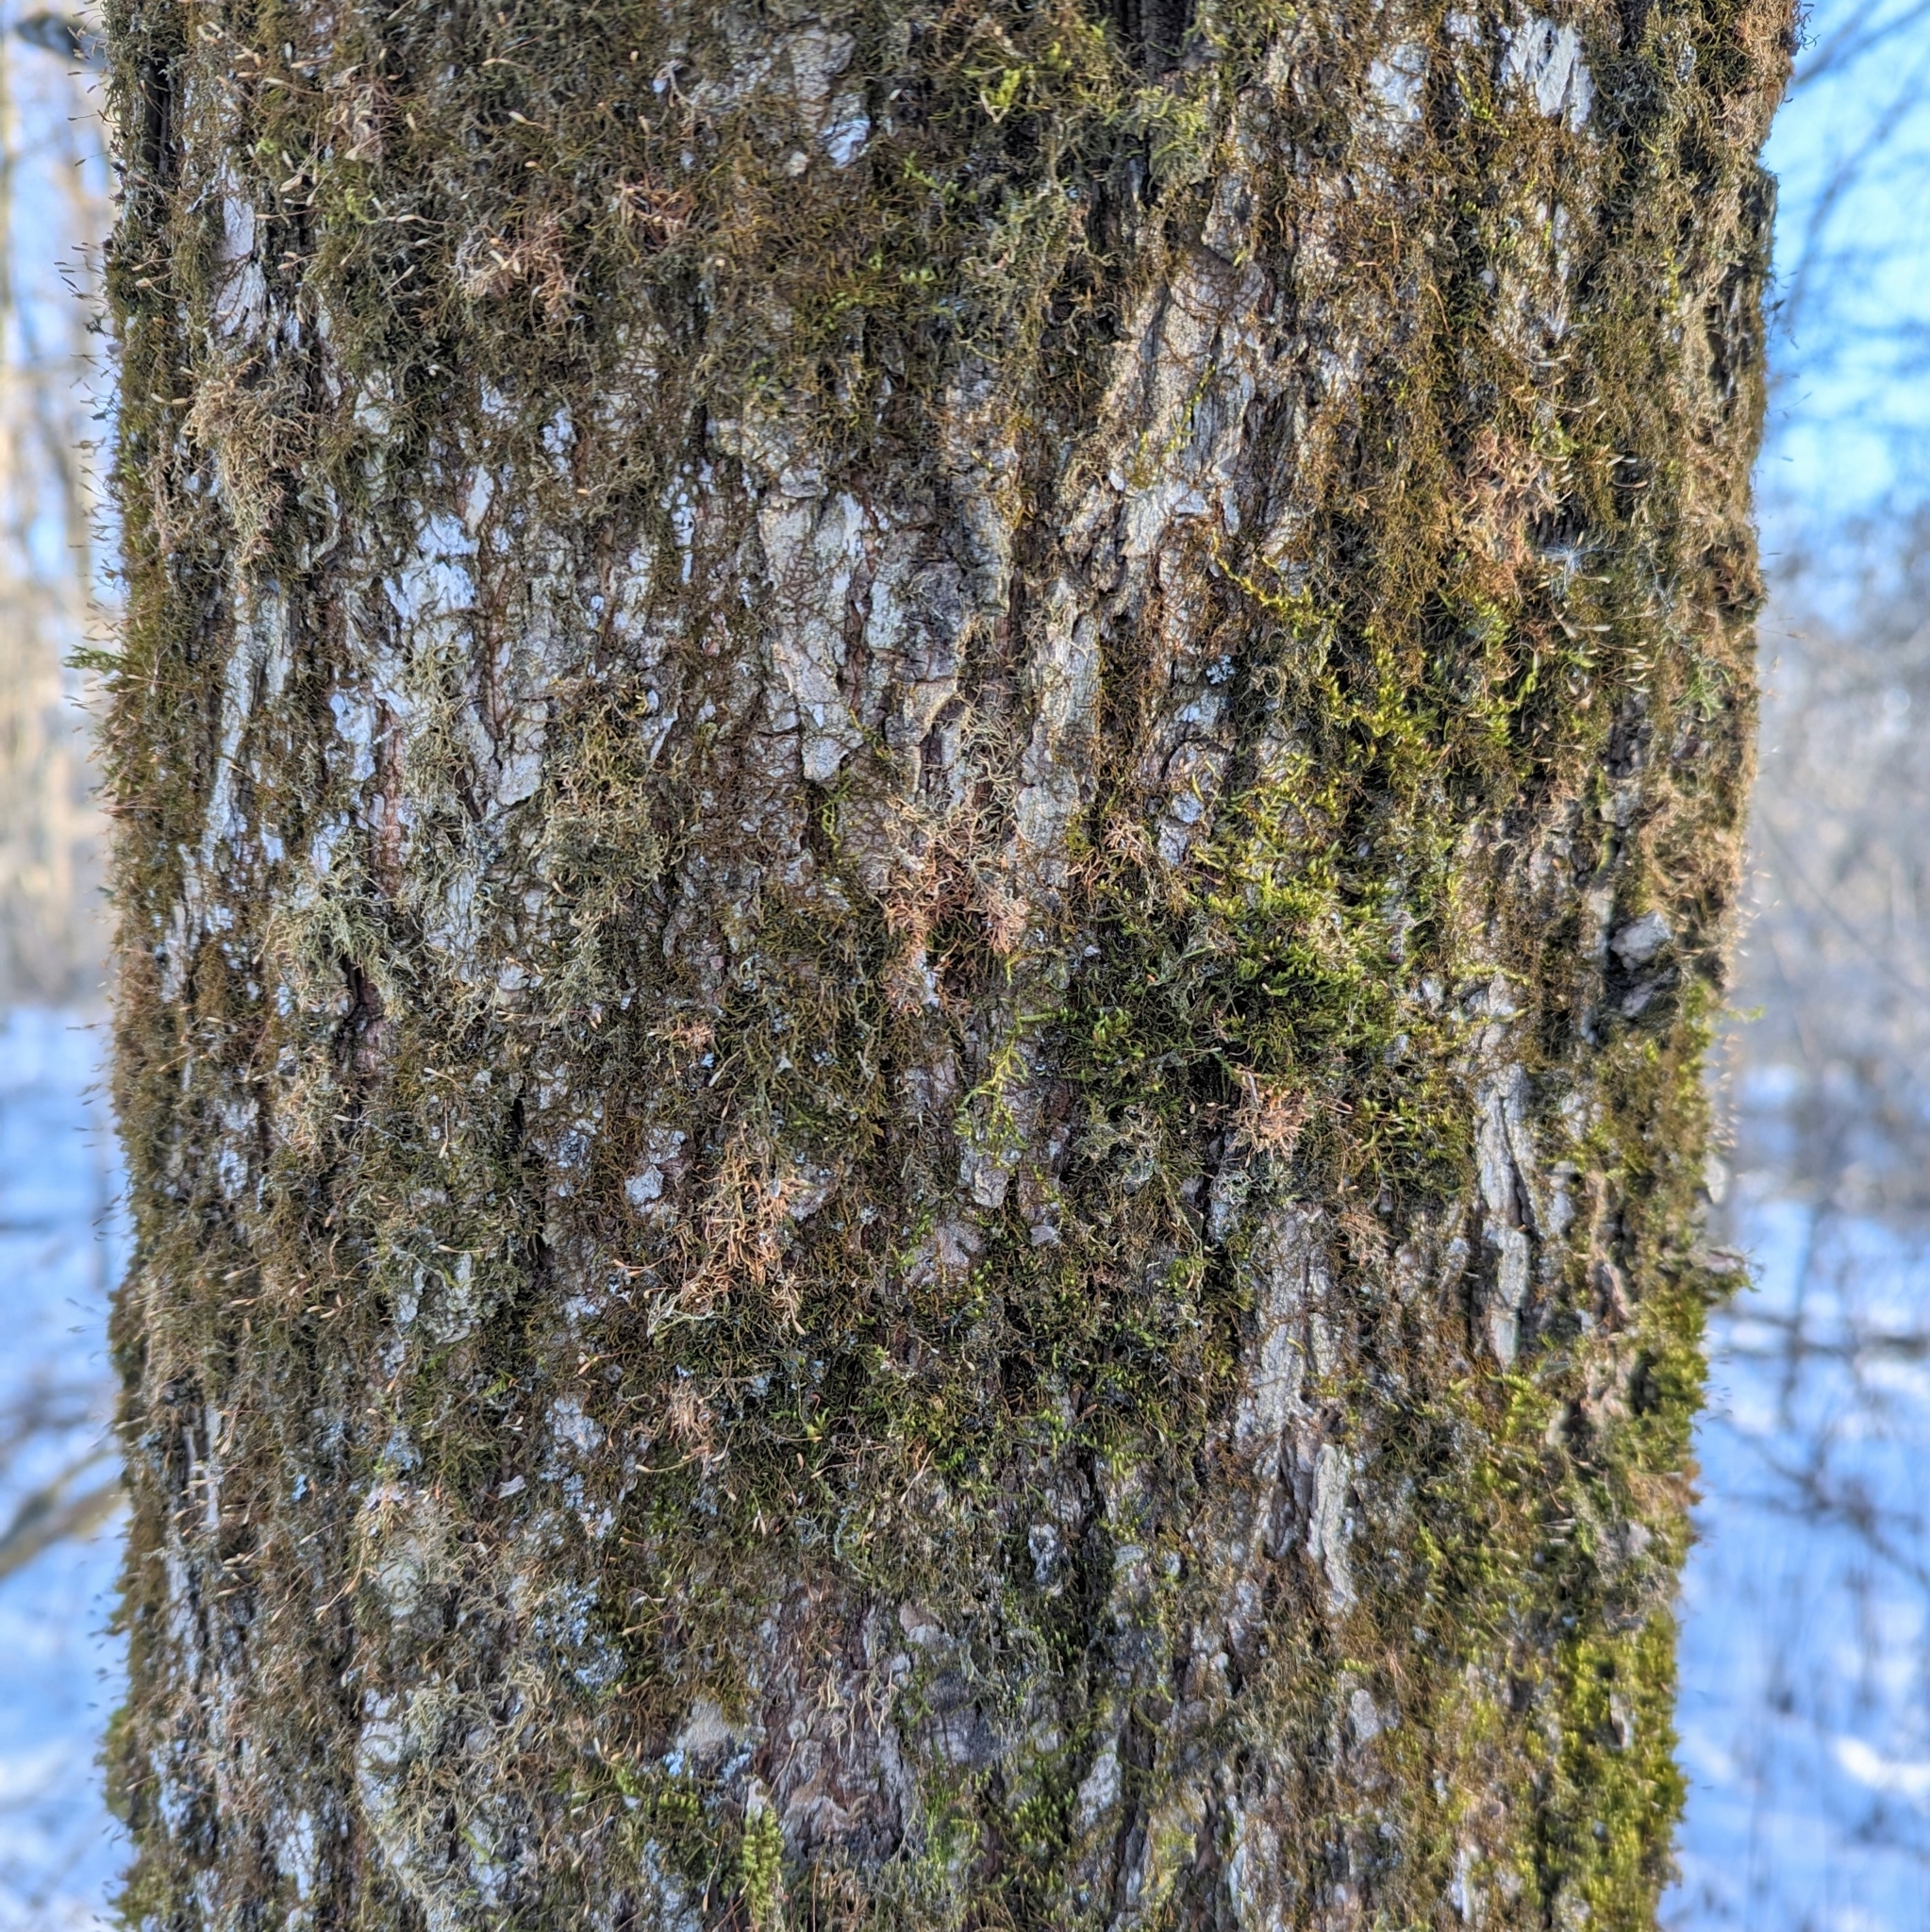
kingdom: Plantae
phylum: Tracheophyta
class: Magnoliopsida
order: Rosales
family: Ulmaceae
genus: Ulmus
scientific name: Ulmus
